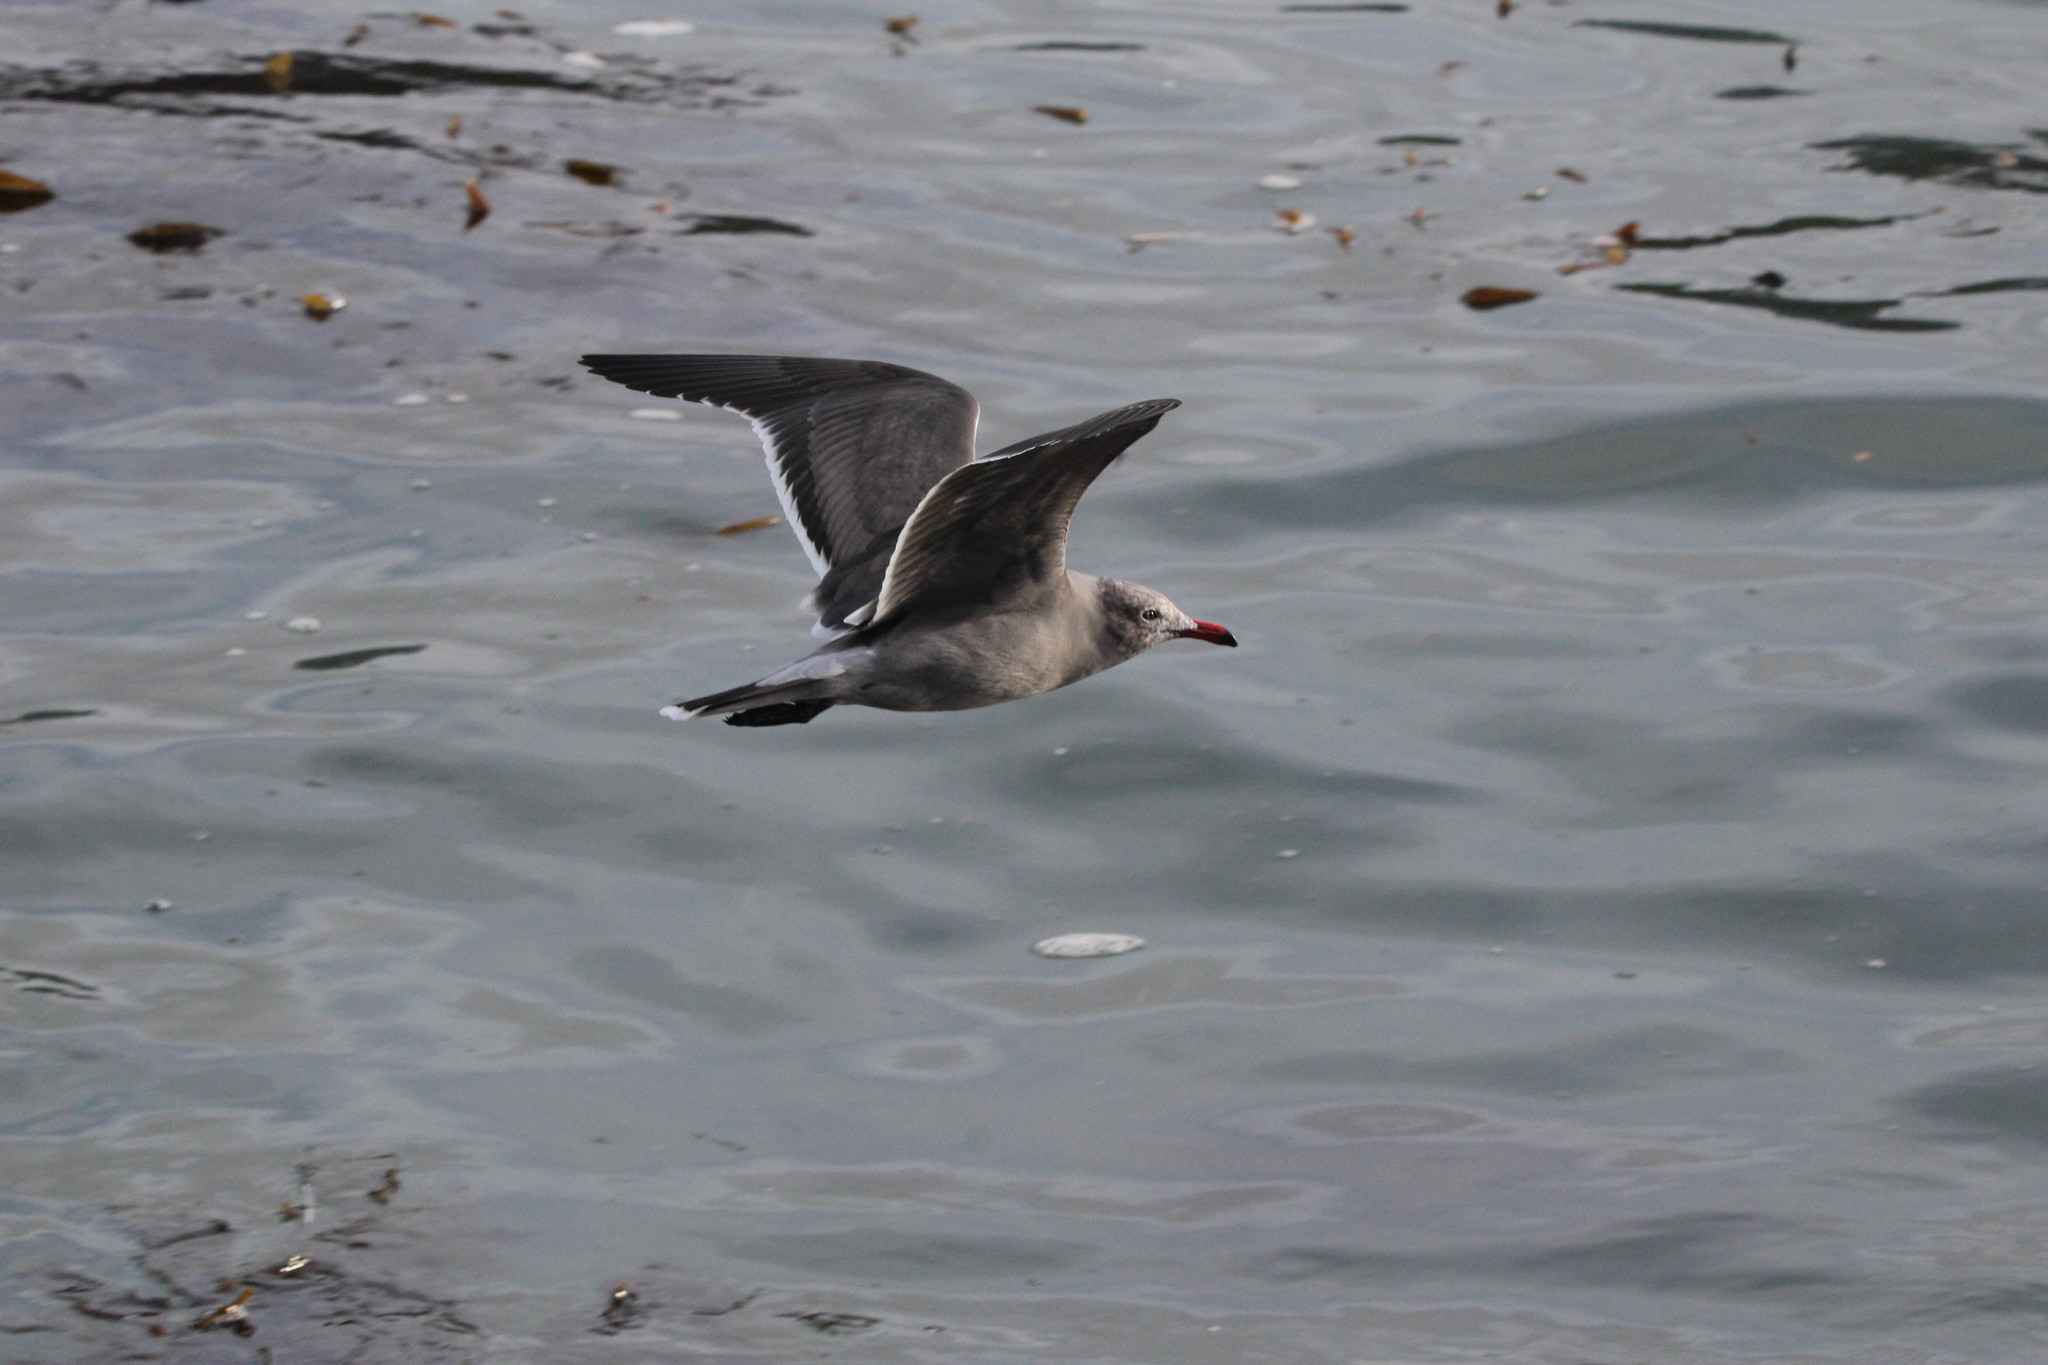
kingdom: Animalia
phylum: Chordata
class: Aves
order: Charadriiformes
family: Laridae
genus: Larus
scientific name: Larus heermanni
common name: Heermann's gull
